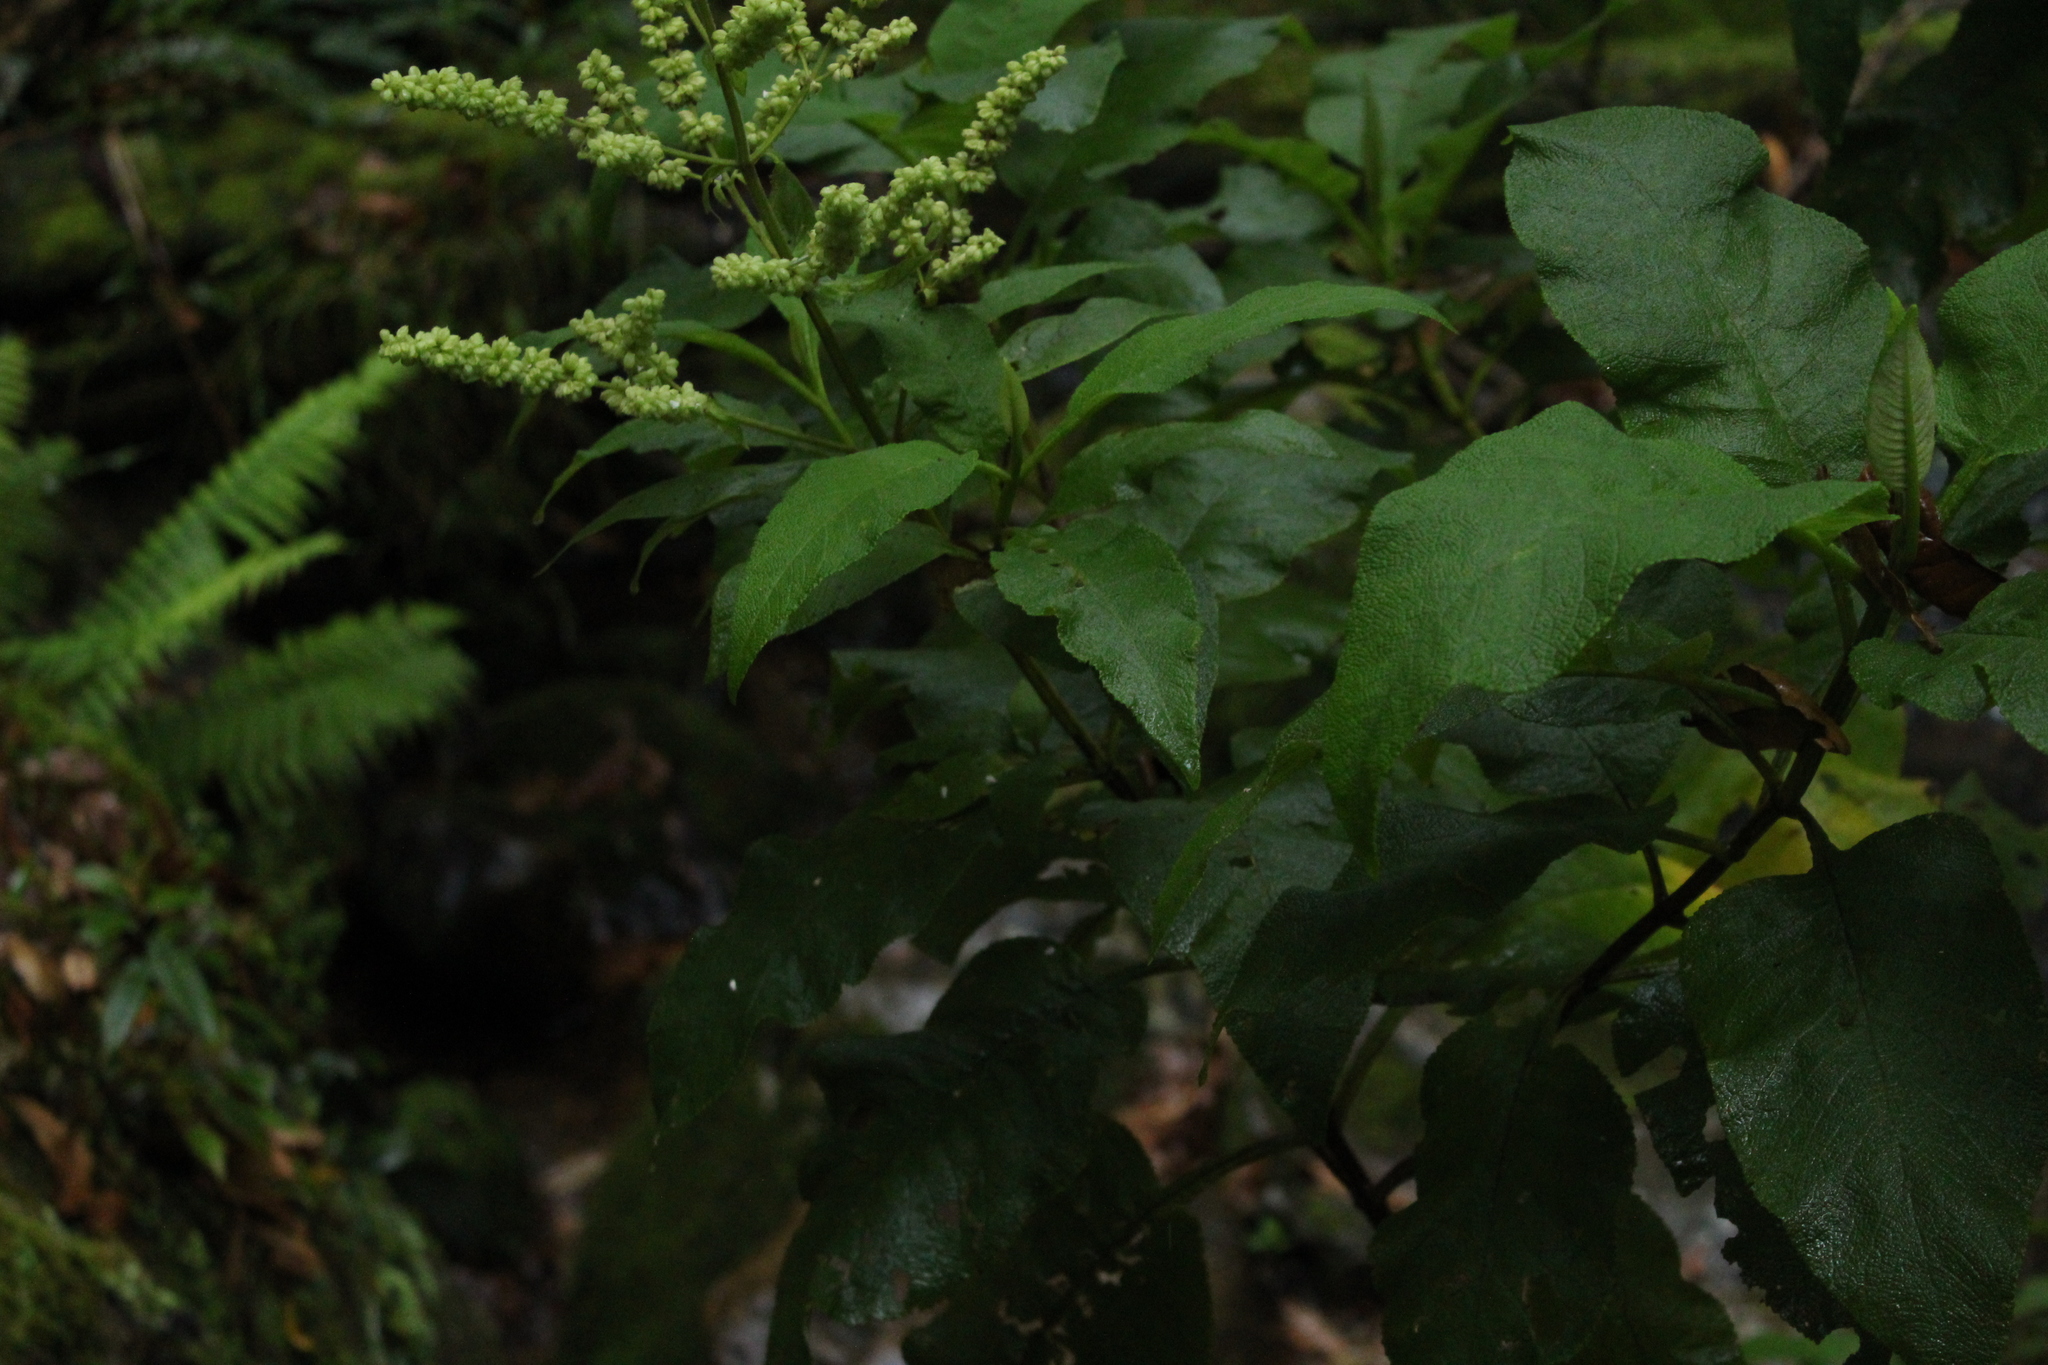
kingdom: Plantae
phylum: Tracheophyta
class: Magnoliopsida
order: Lamiales
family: Lamiaceae
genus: Lepechinia
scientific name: Lepechinia bullata
